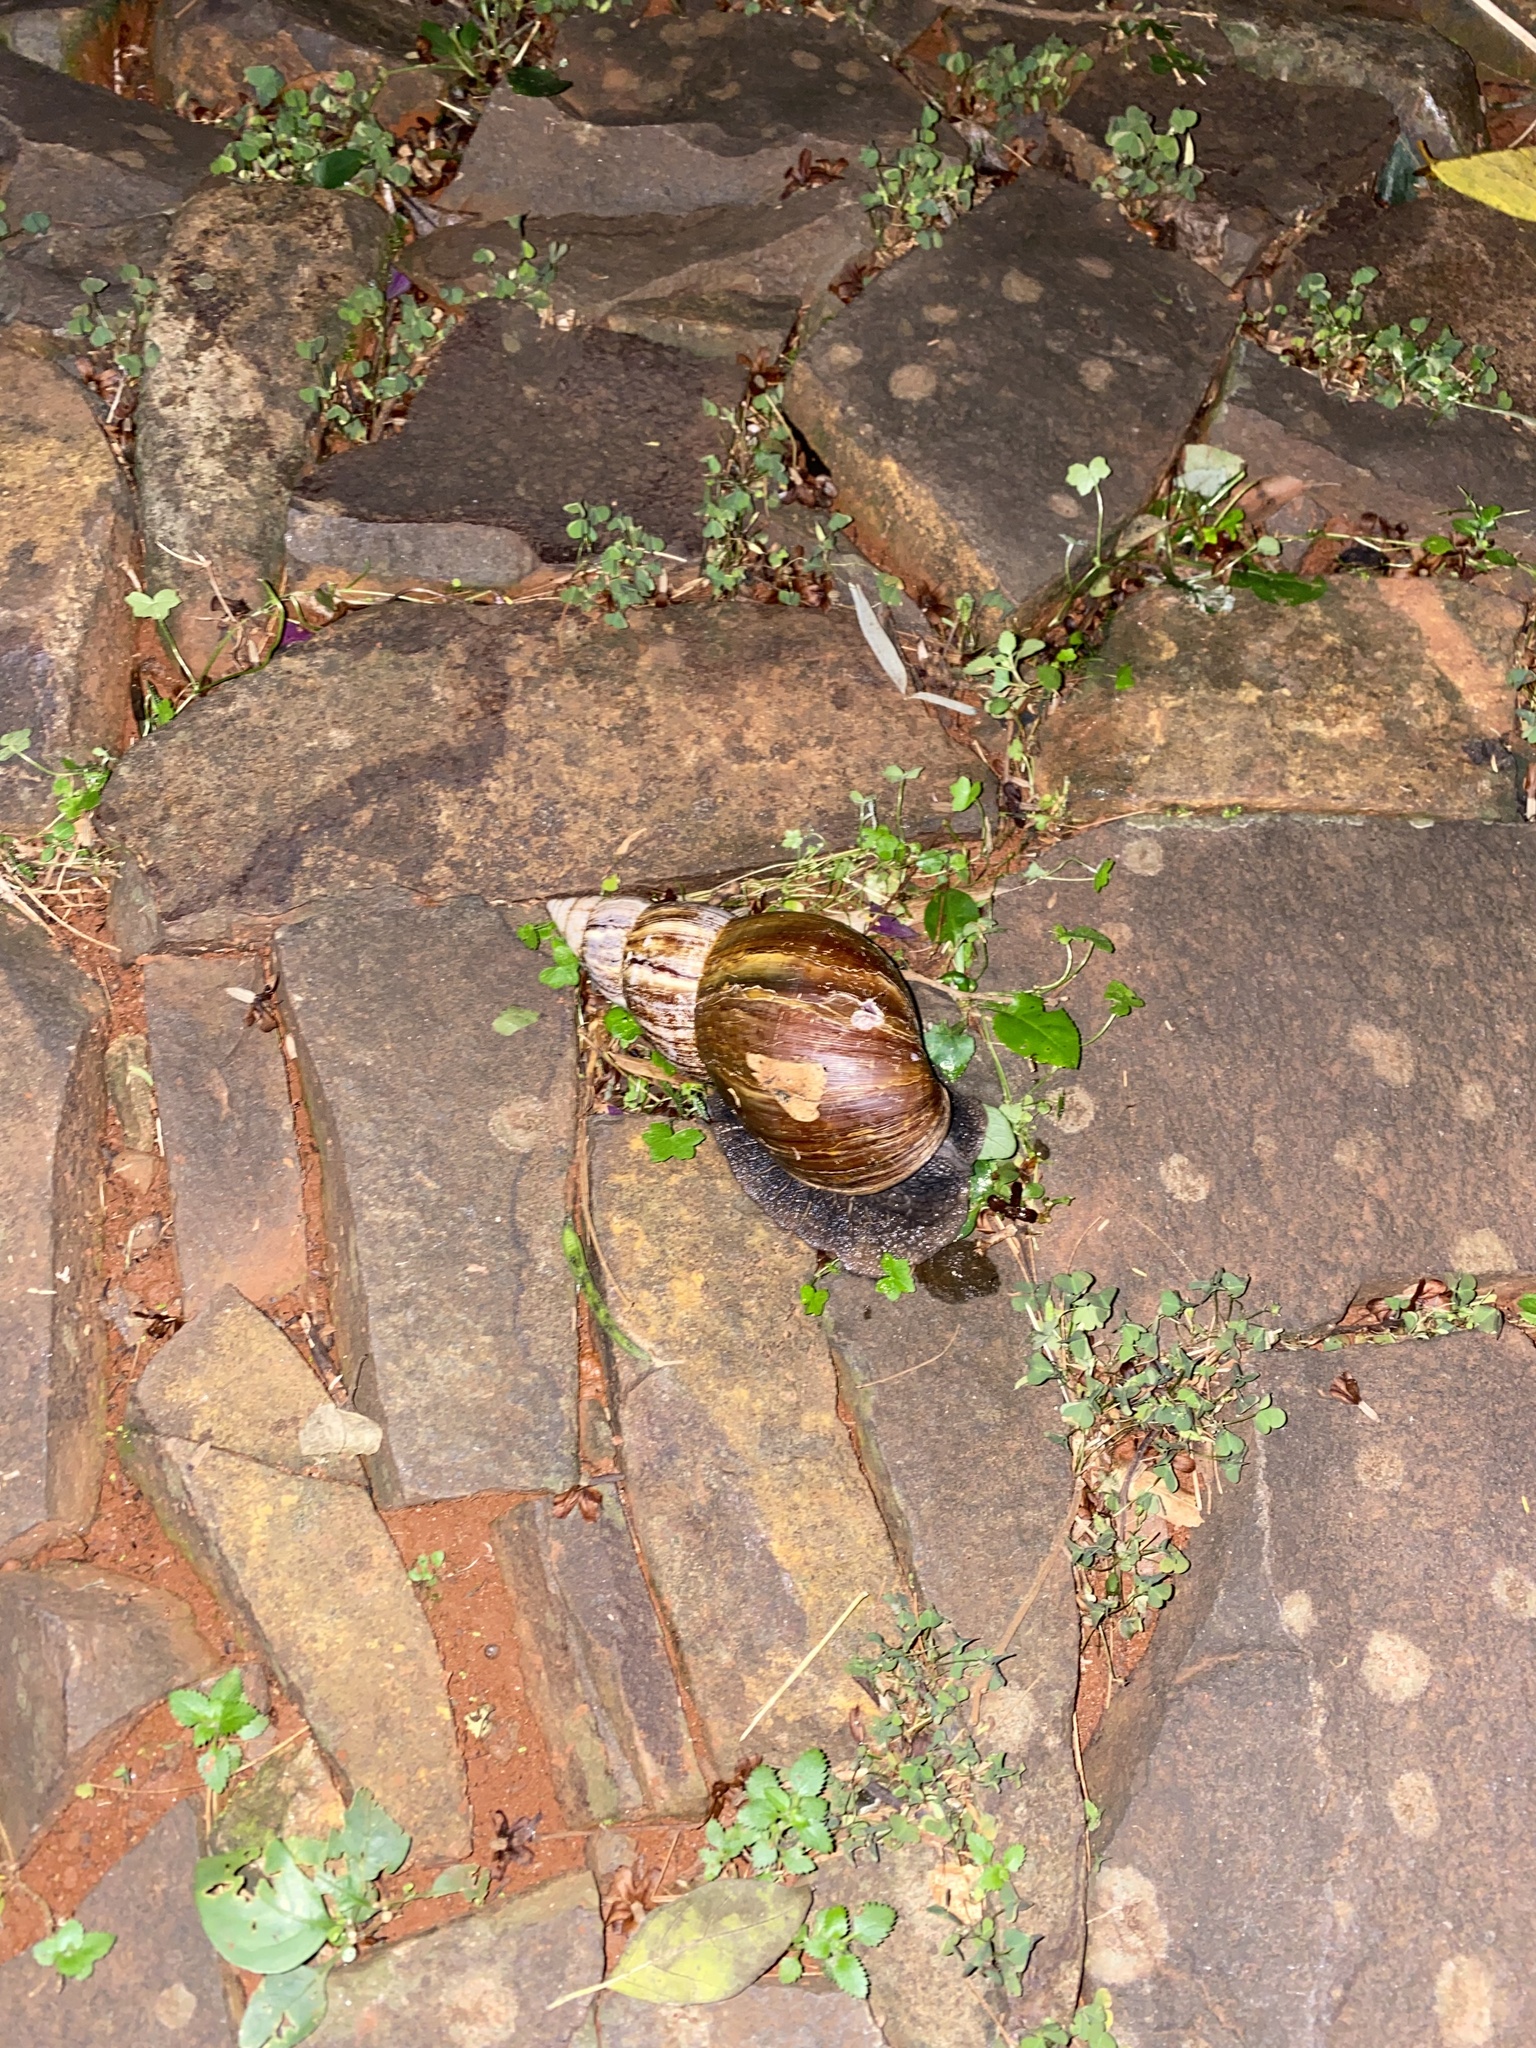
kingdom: Animalia
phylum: Mollusca
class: Gastropoda
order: Stylommatophora
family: Achatinidae
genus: Lissachatina
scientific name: Lissachatina fulica
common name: Giant african snail
